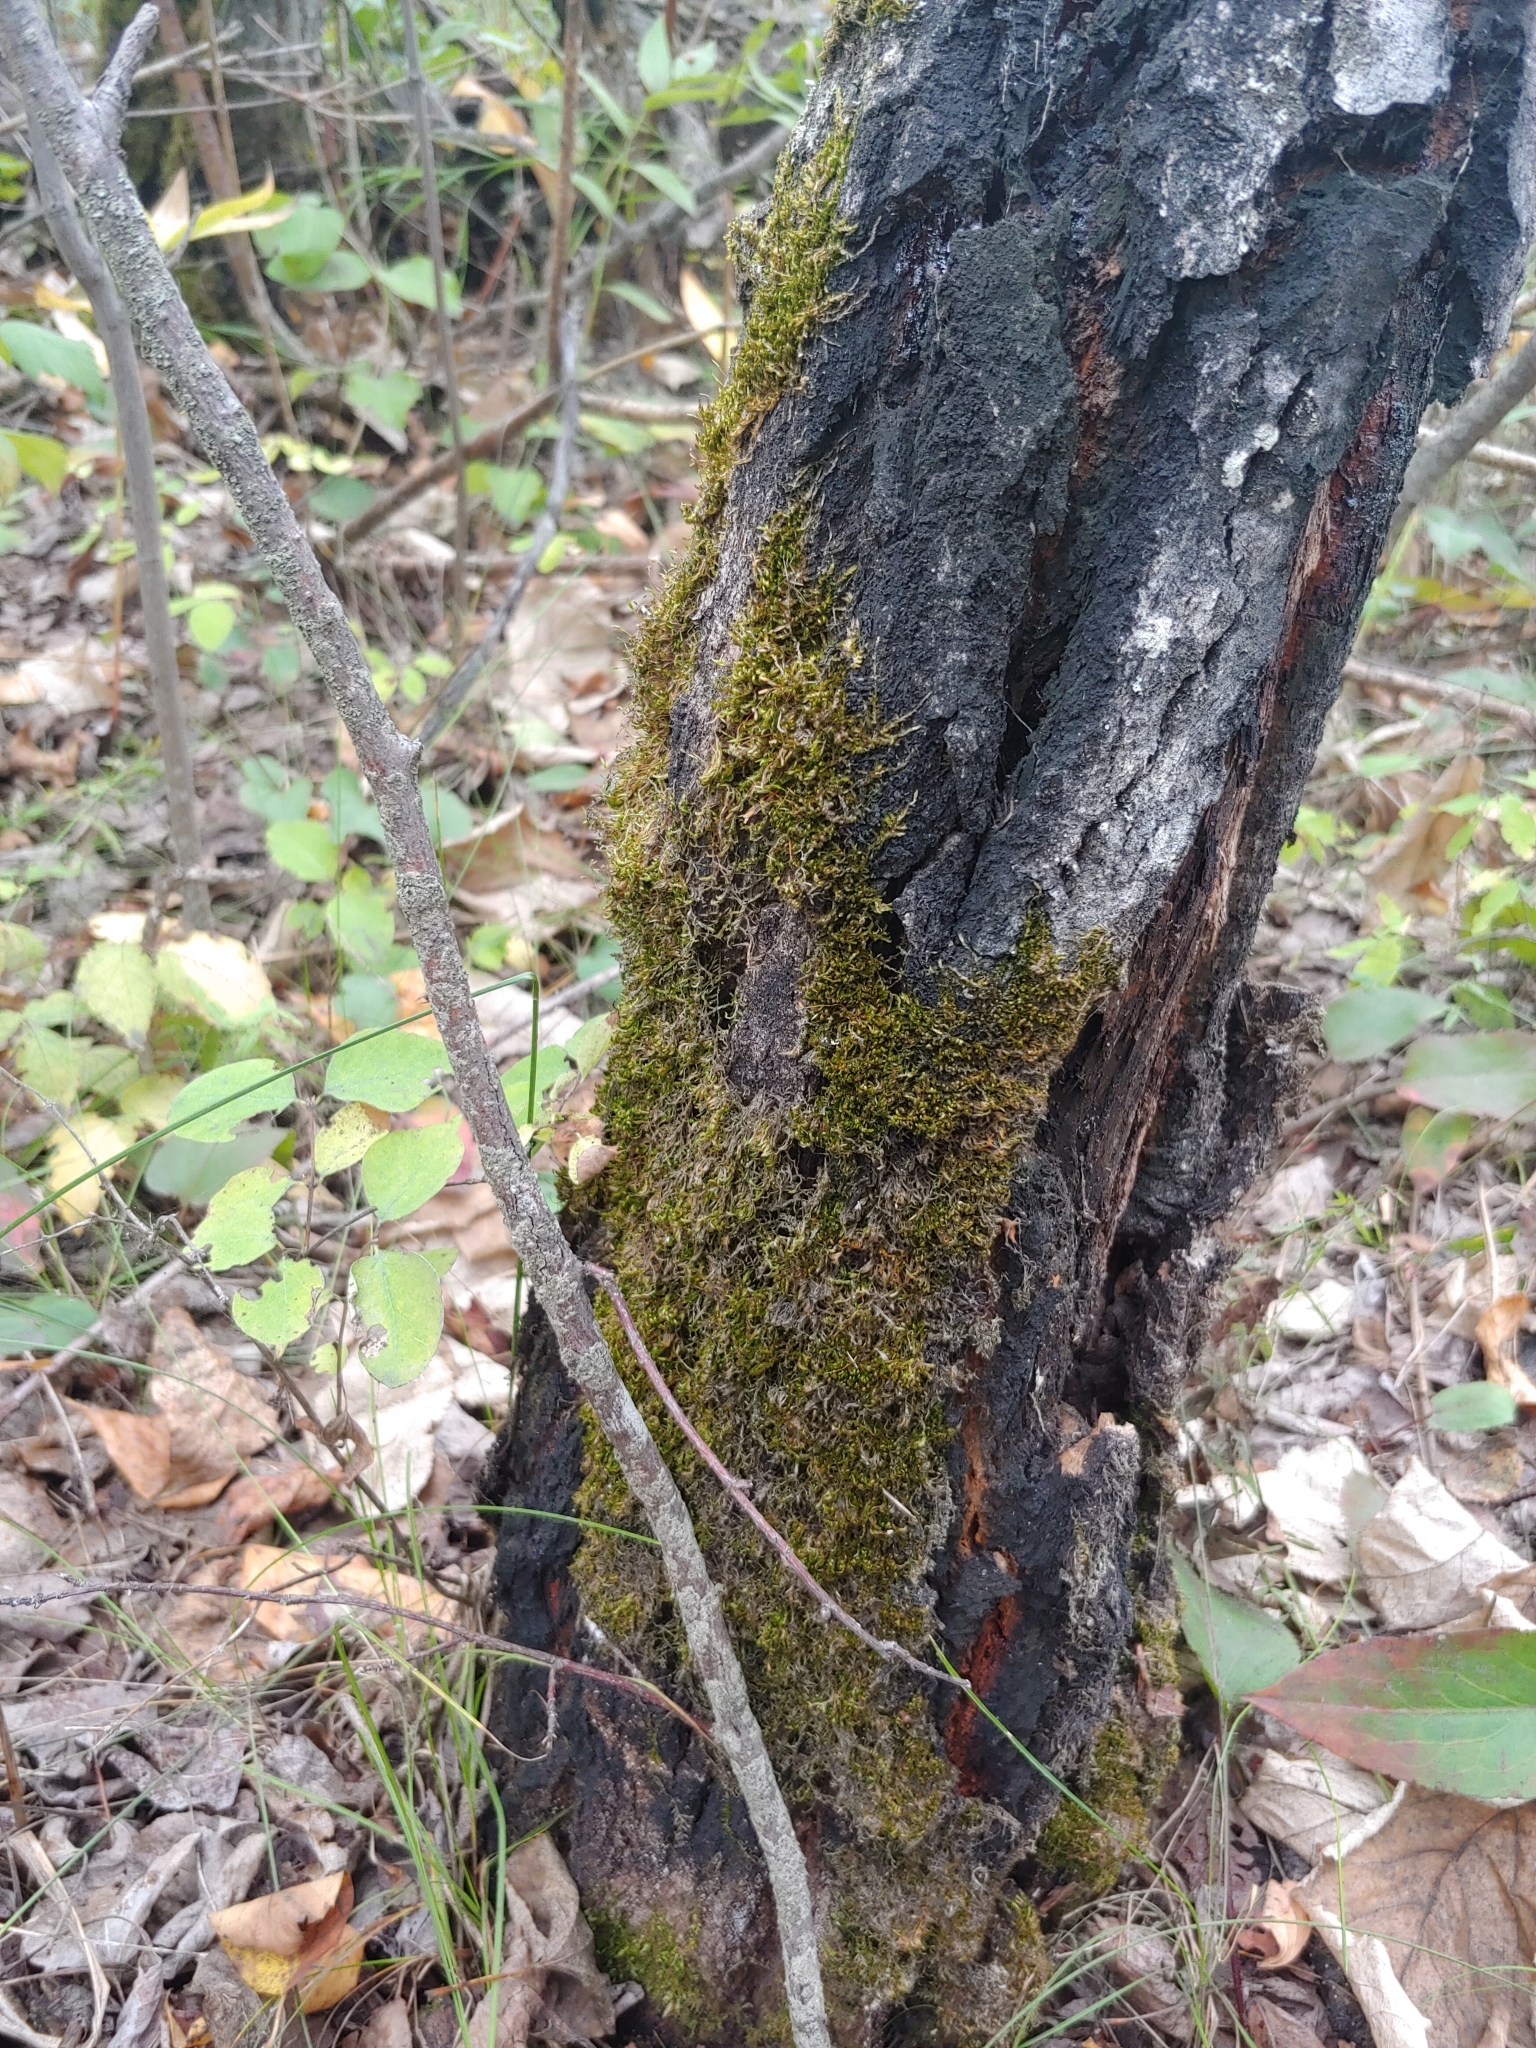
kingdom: Plantae
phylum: Bryophyta
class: Bryopsida
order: Hypnales
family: Pylaisiaceae
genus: Pylaisia
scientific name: Pylaisia polyantha
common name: Many-flowered leskea
